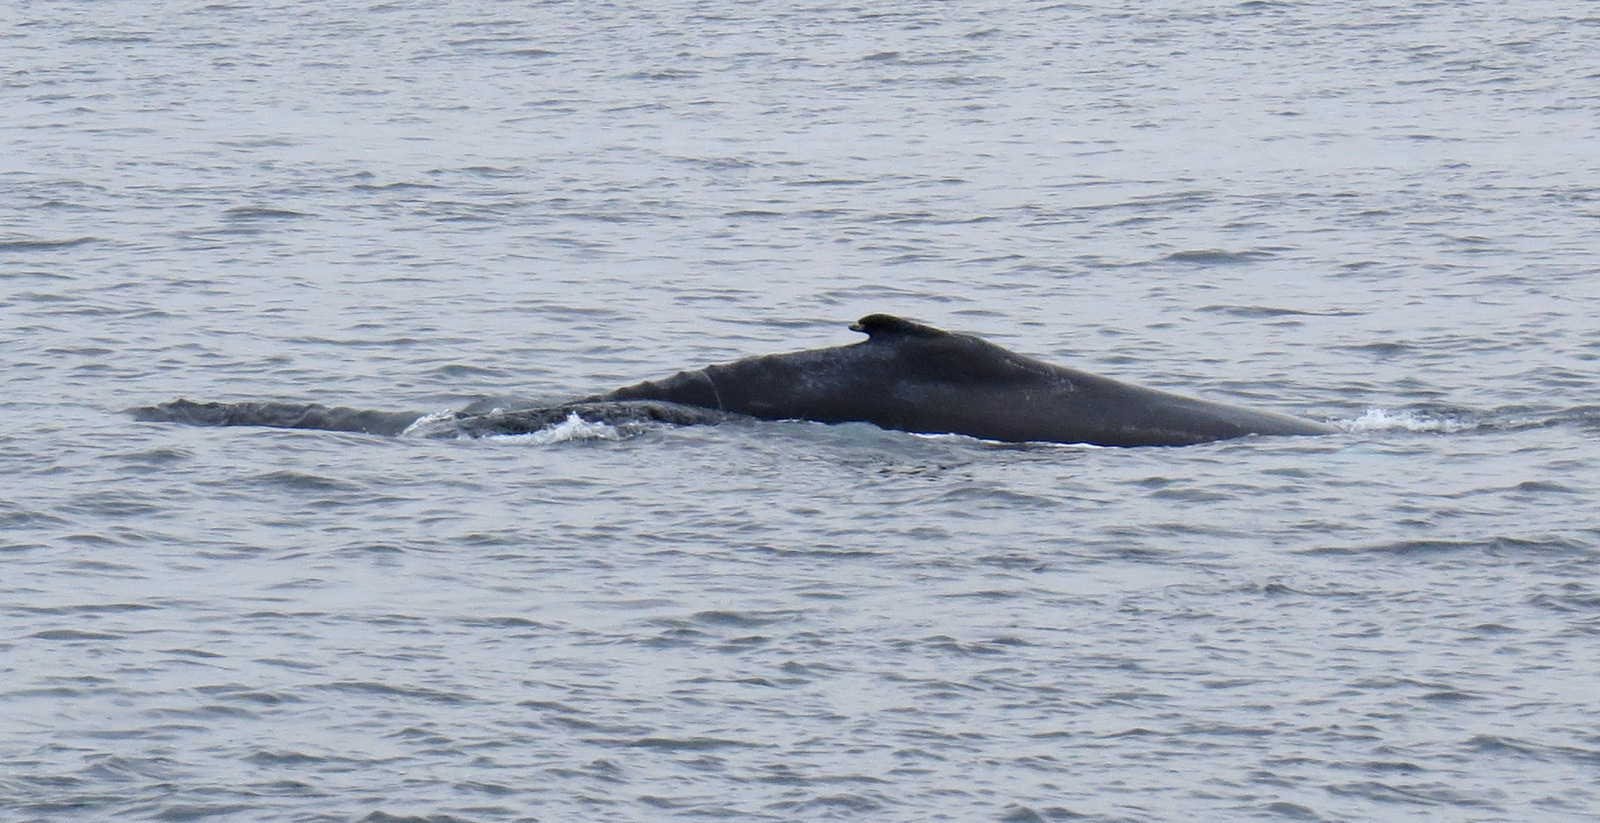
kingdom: Animalia
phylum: Chordata
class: Mammalia
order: Cetacea
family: Balaenopteridae
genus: Megaptera
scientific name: Megaptera novaeangliae
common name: Humpback whale
